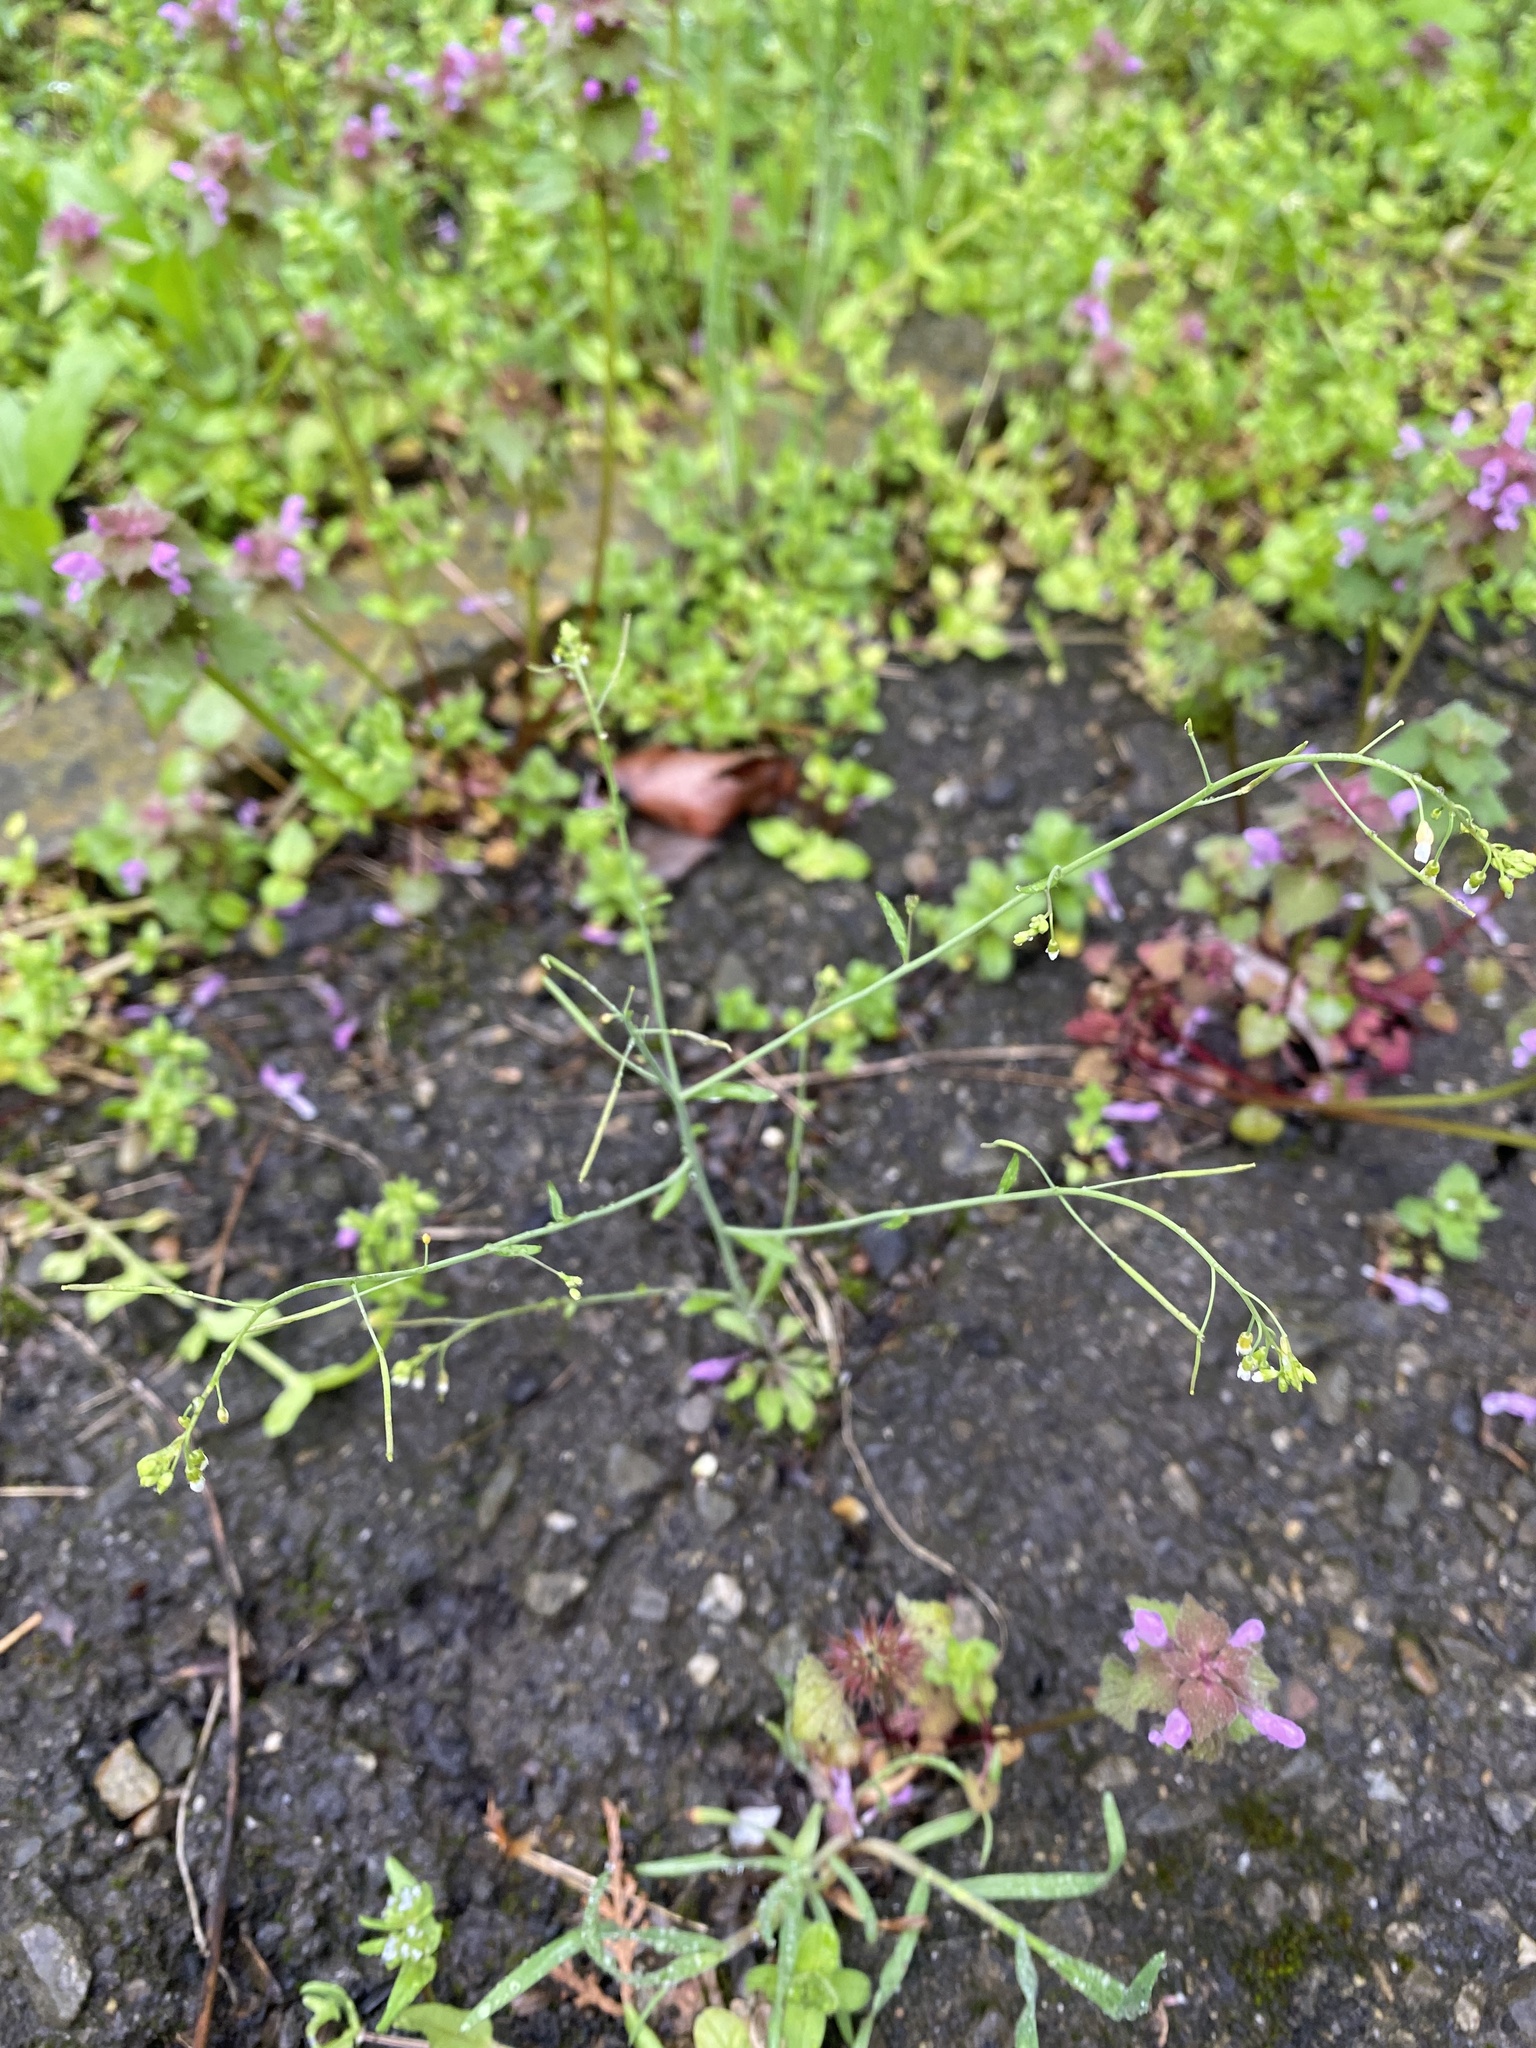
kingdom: Plantae
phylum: Tracheophyta
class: Magnoliopsida
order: Brassicales
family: Brassicaceae
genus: Arabidopsis
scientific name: Arabidopsis thaliana
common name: Thale cress
